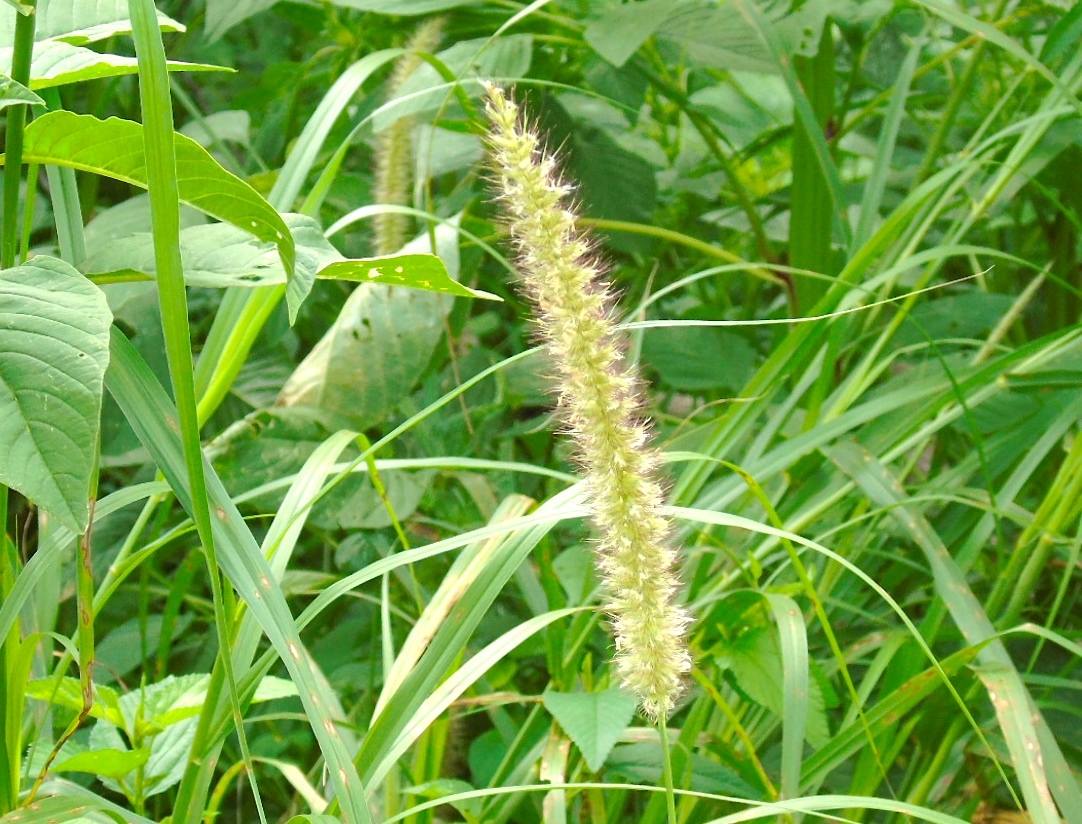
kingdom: Plantae
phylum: Tracheophyta
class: Liliopsida
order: Poales
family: Poaceae
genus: Cenchrus
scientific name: Cenchrus ciliaris
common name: Buffelgrass
